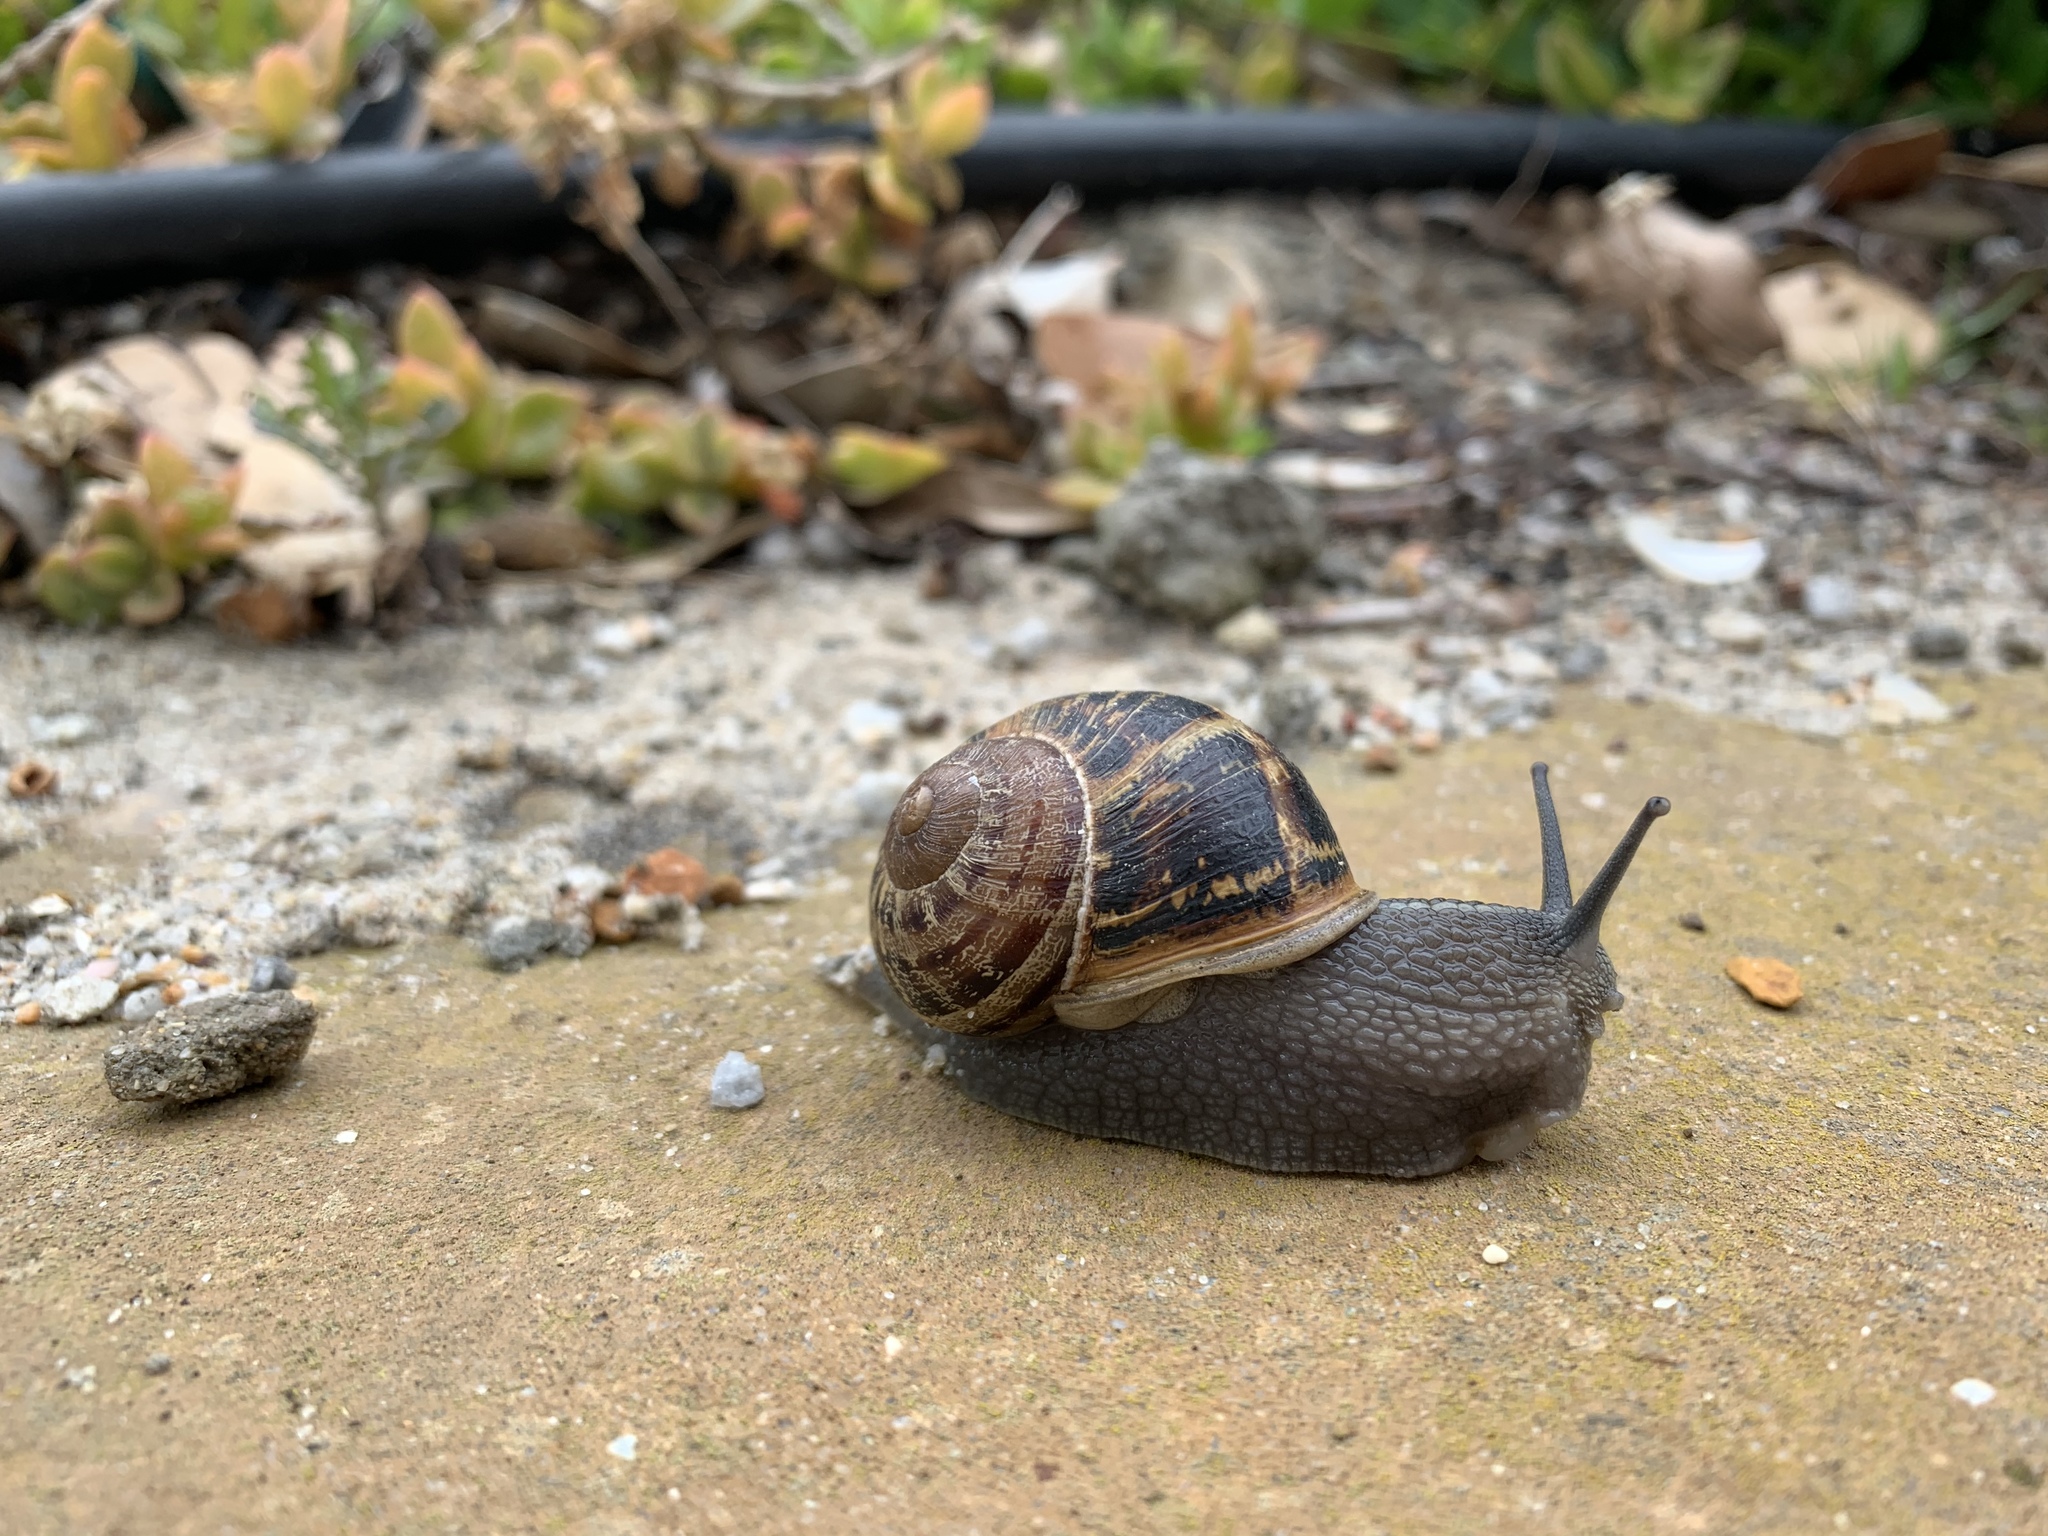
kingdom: Animalia
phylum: Mollusca
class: Gastropoda
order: Stylommatophora
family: Helicidae
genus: Cornu
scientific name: Cornu aspersum
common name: Brown garden snail
